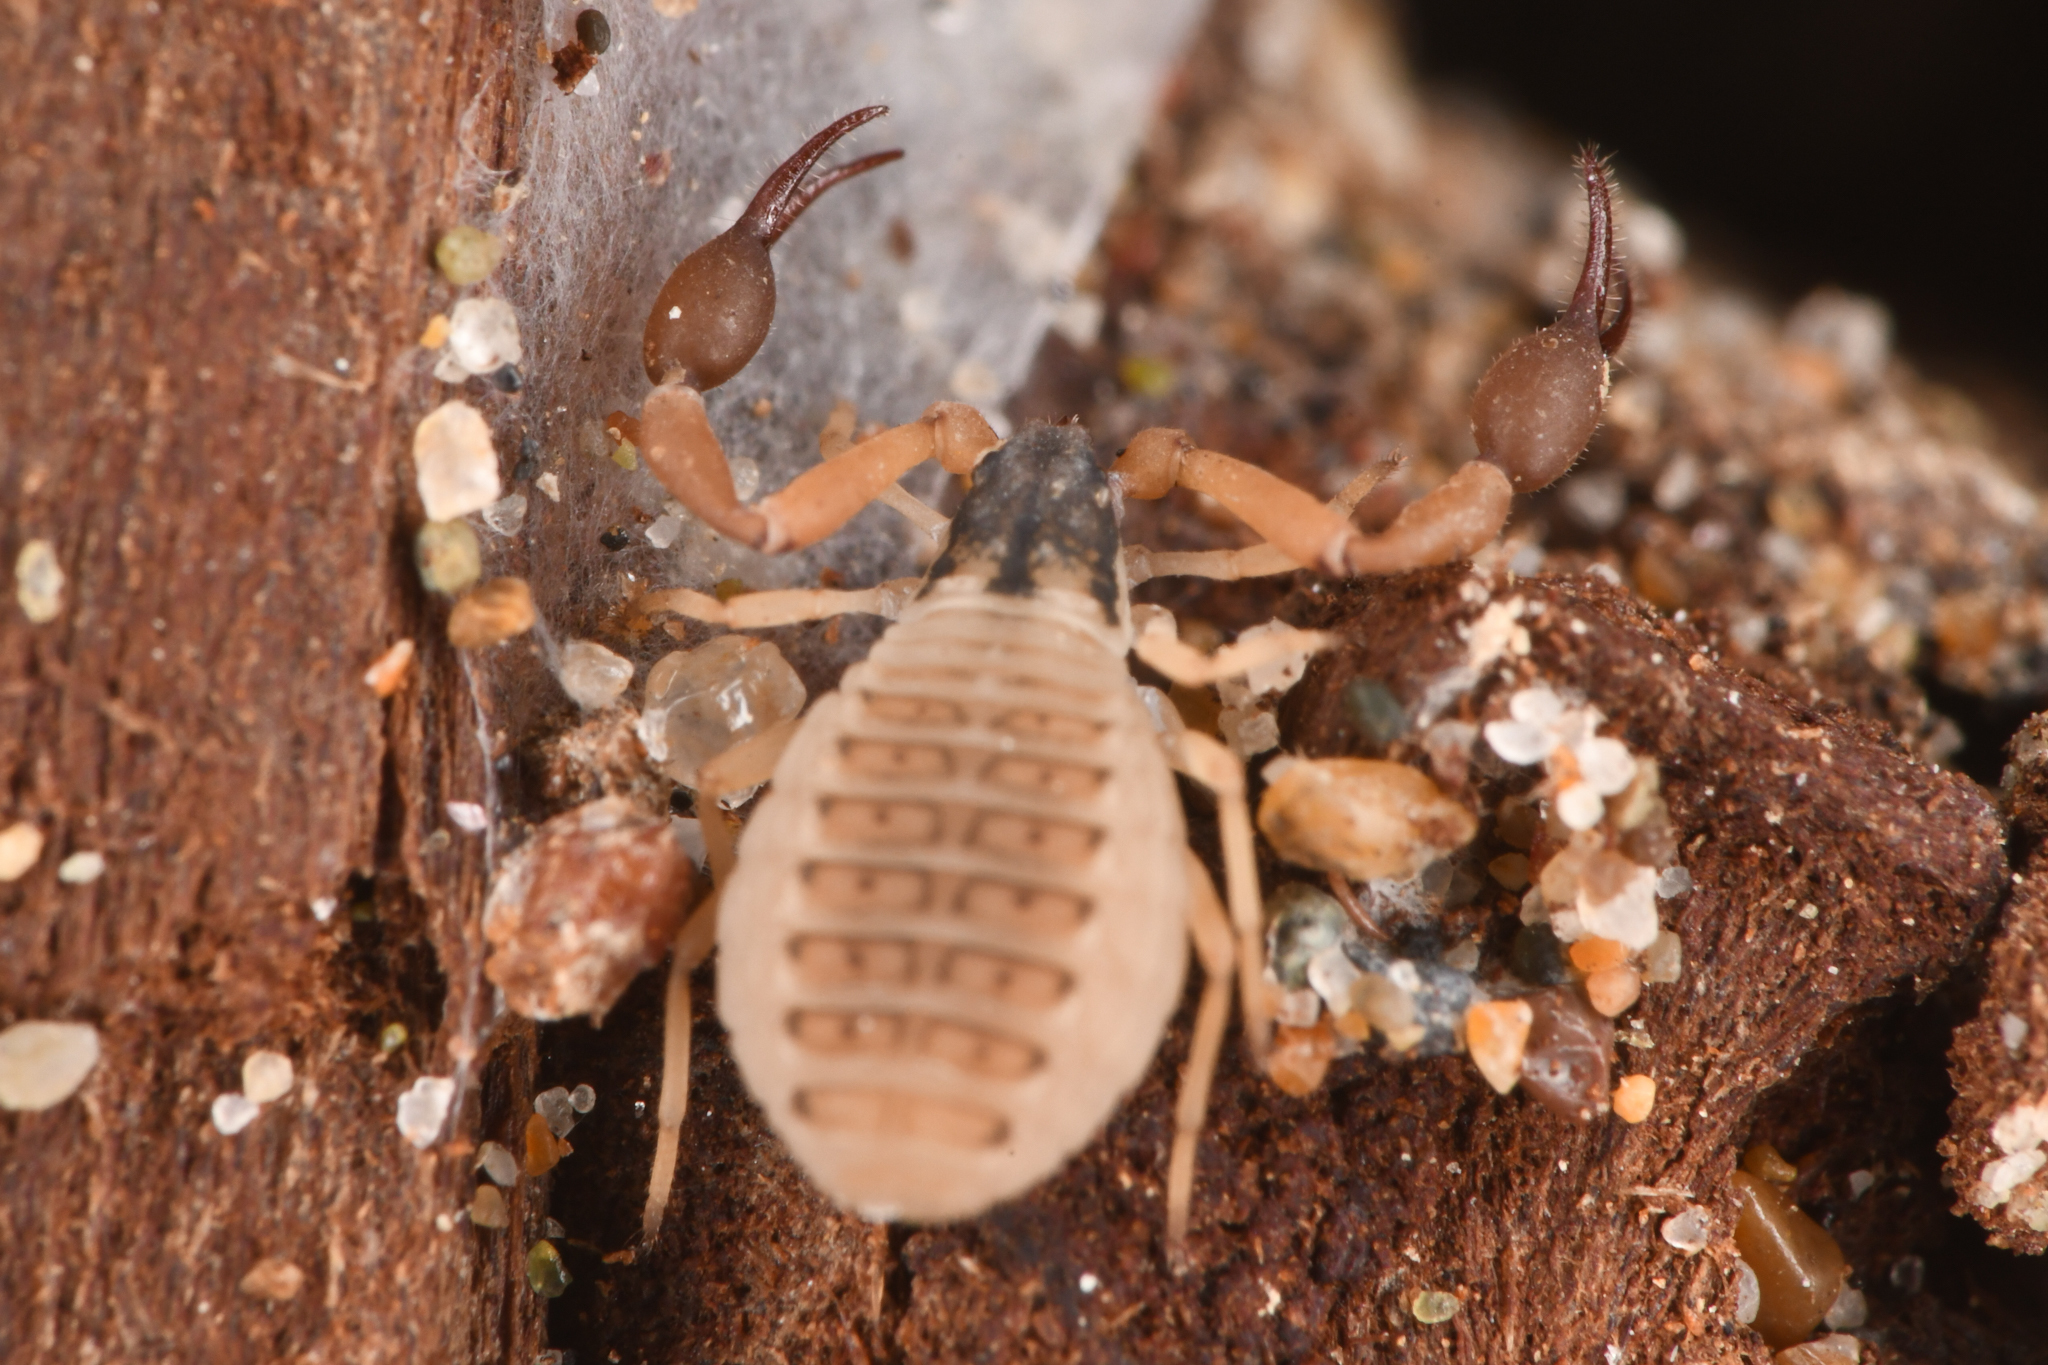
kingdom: Animalia
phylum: Arthropoda
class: Arachnida
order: Pseudoscorpiones
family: Garypidae
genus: Anchigarypus
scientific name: Anchigarypus californicus
